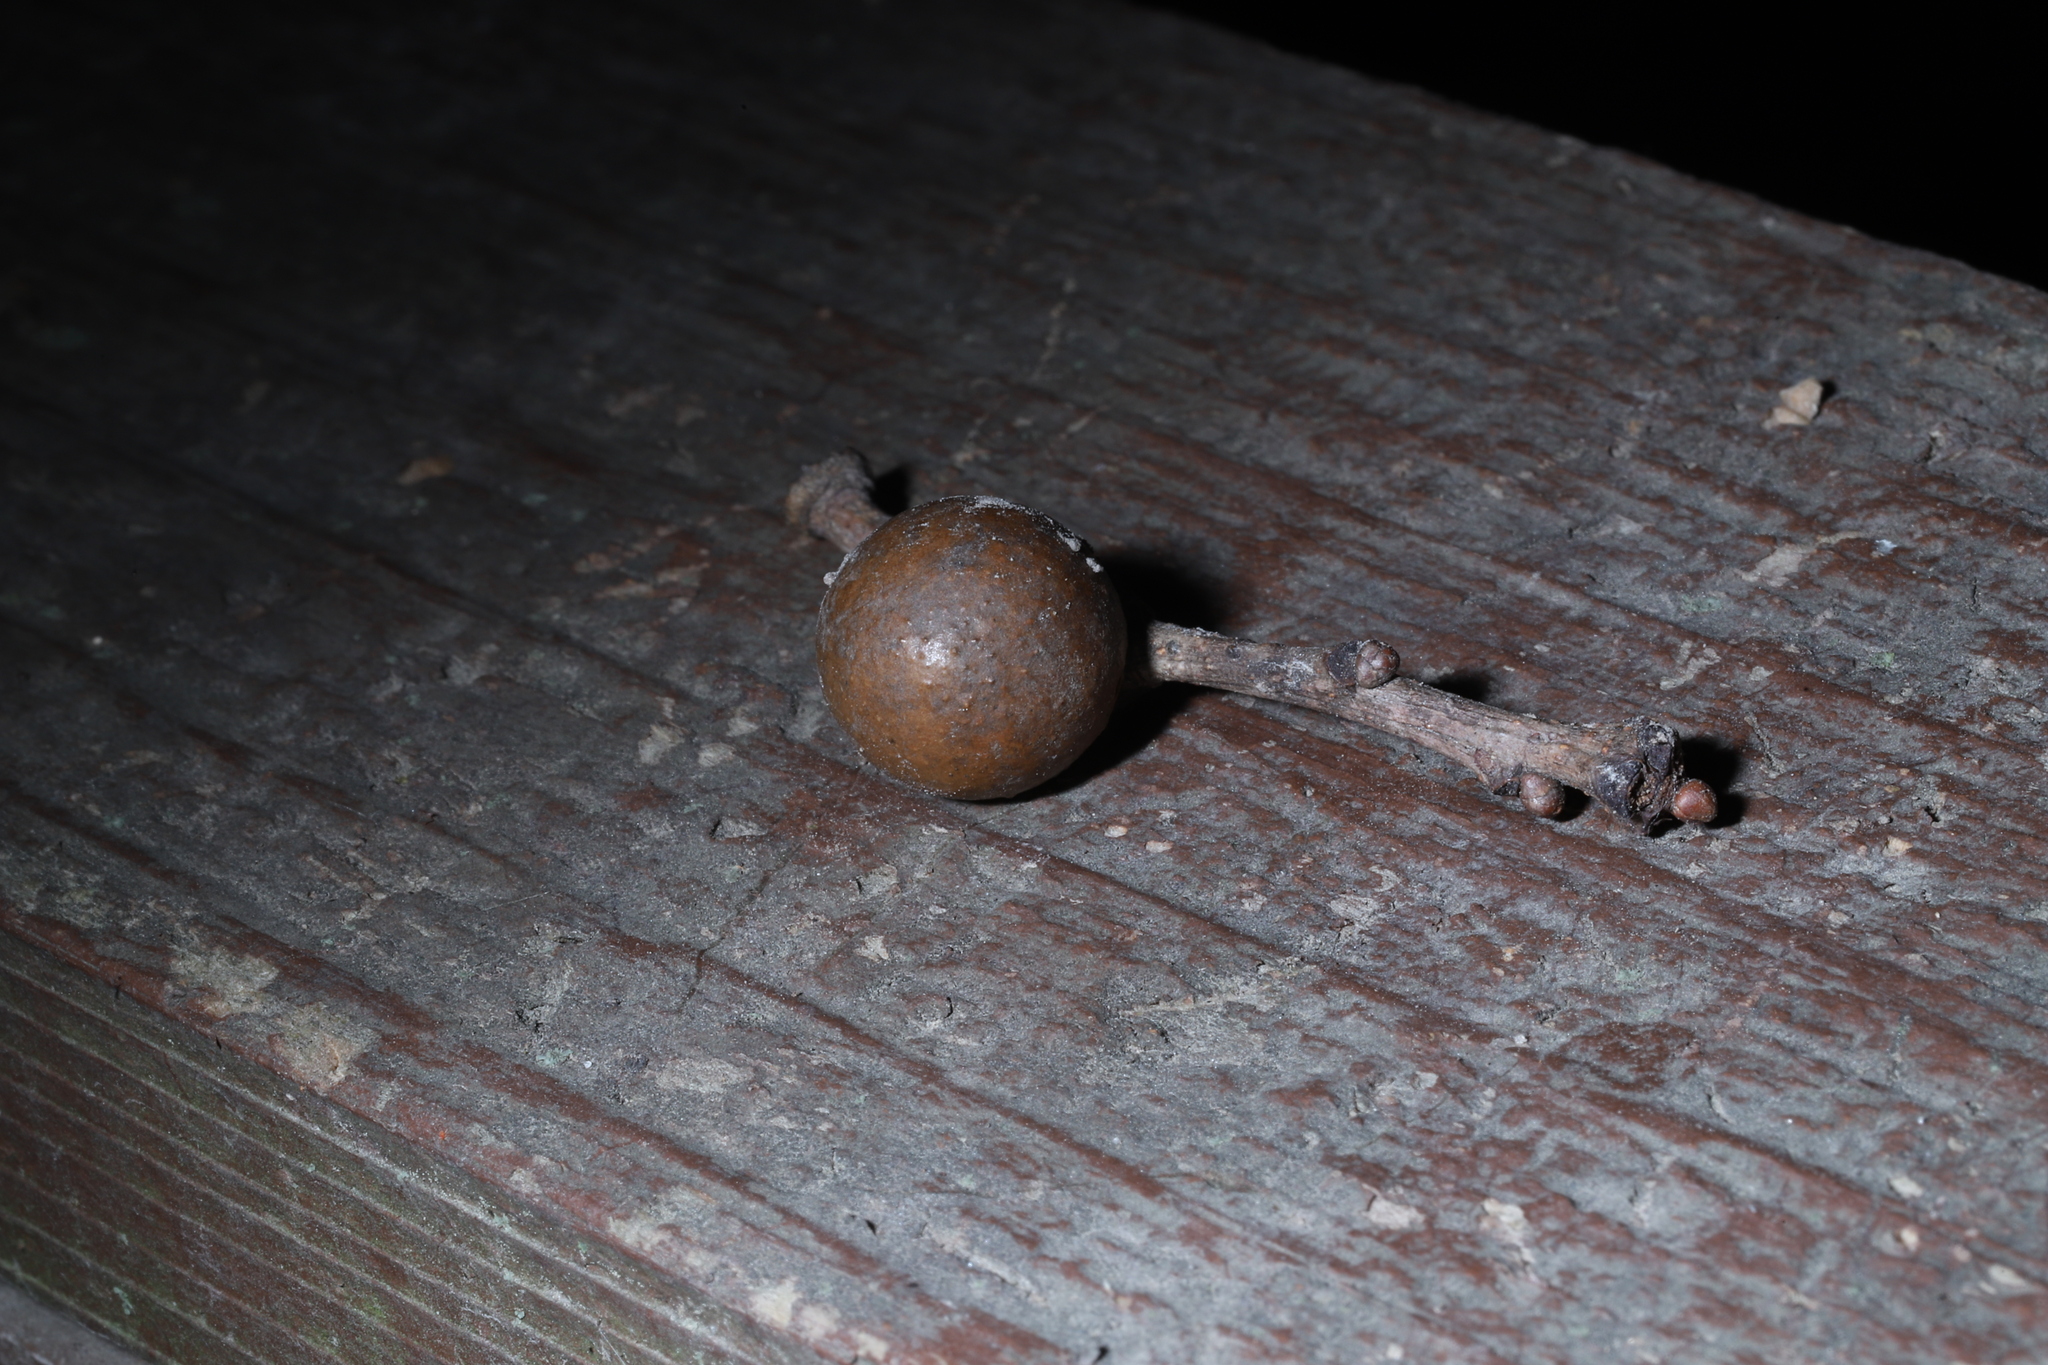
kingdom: Animalia
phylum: Arthropoda
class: Insecta
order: Hymenoptera
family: Cynipidae
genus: Disholcaspis
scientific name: Disholcaspis quercusglobulus
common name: Round bullet gall wasp
